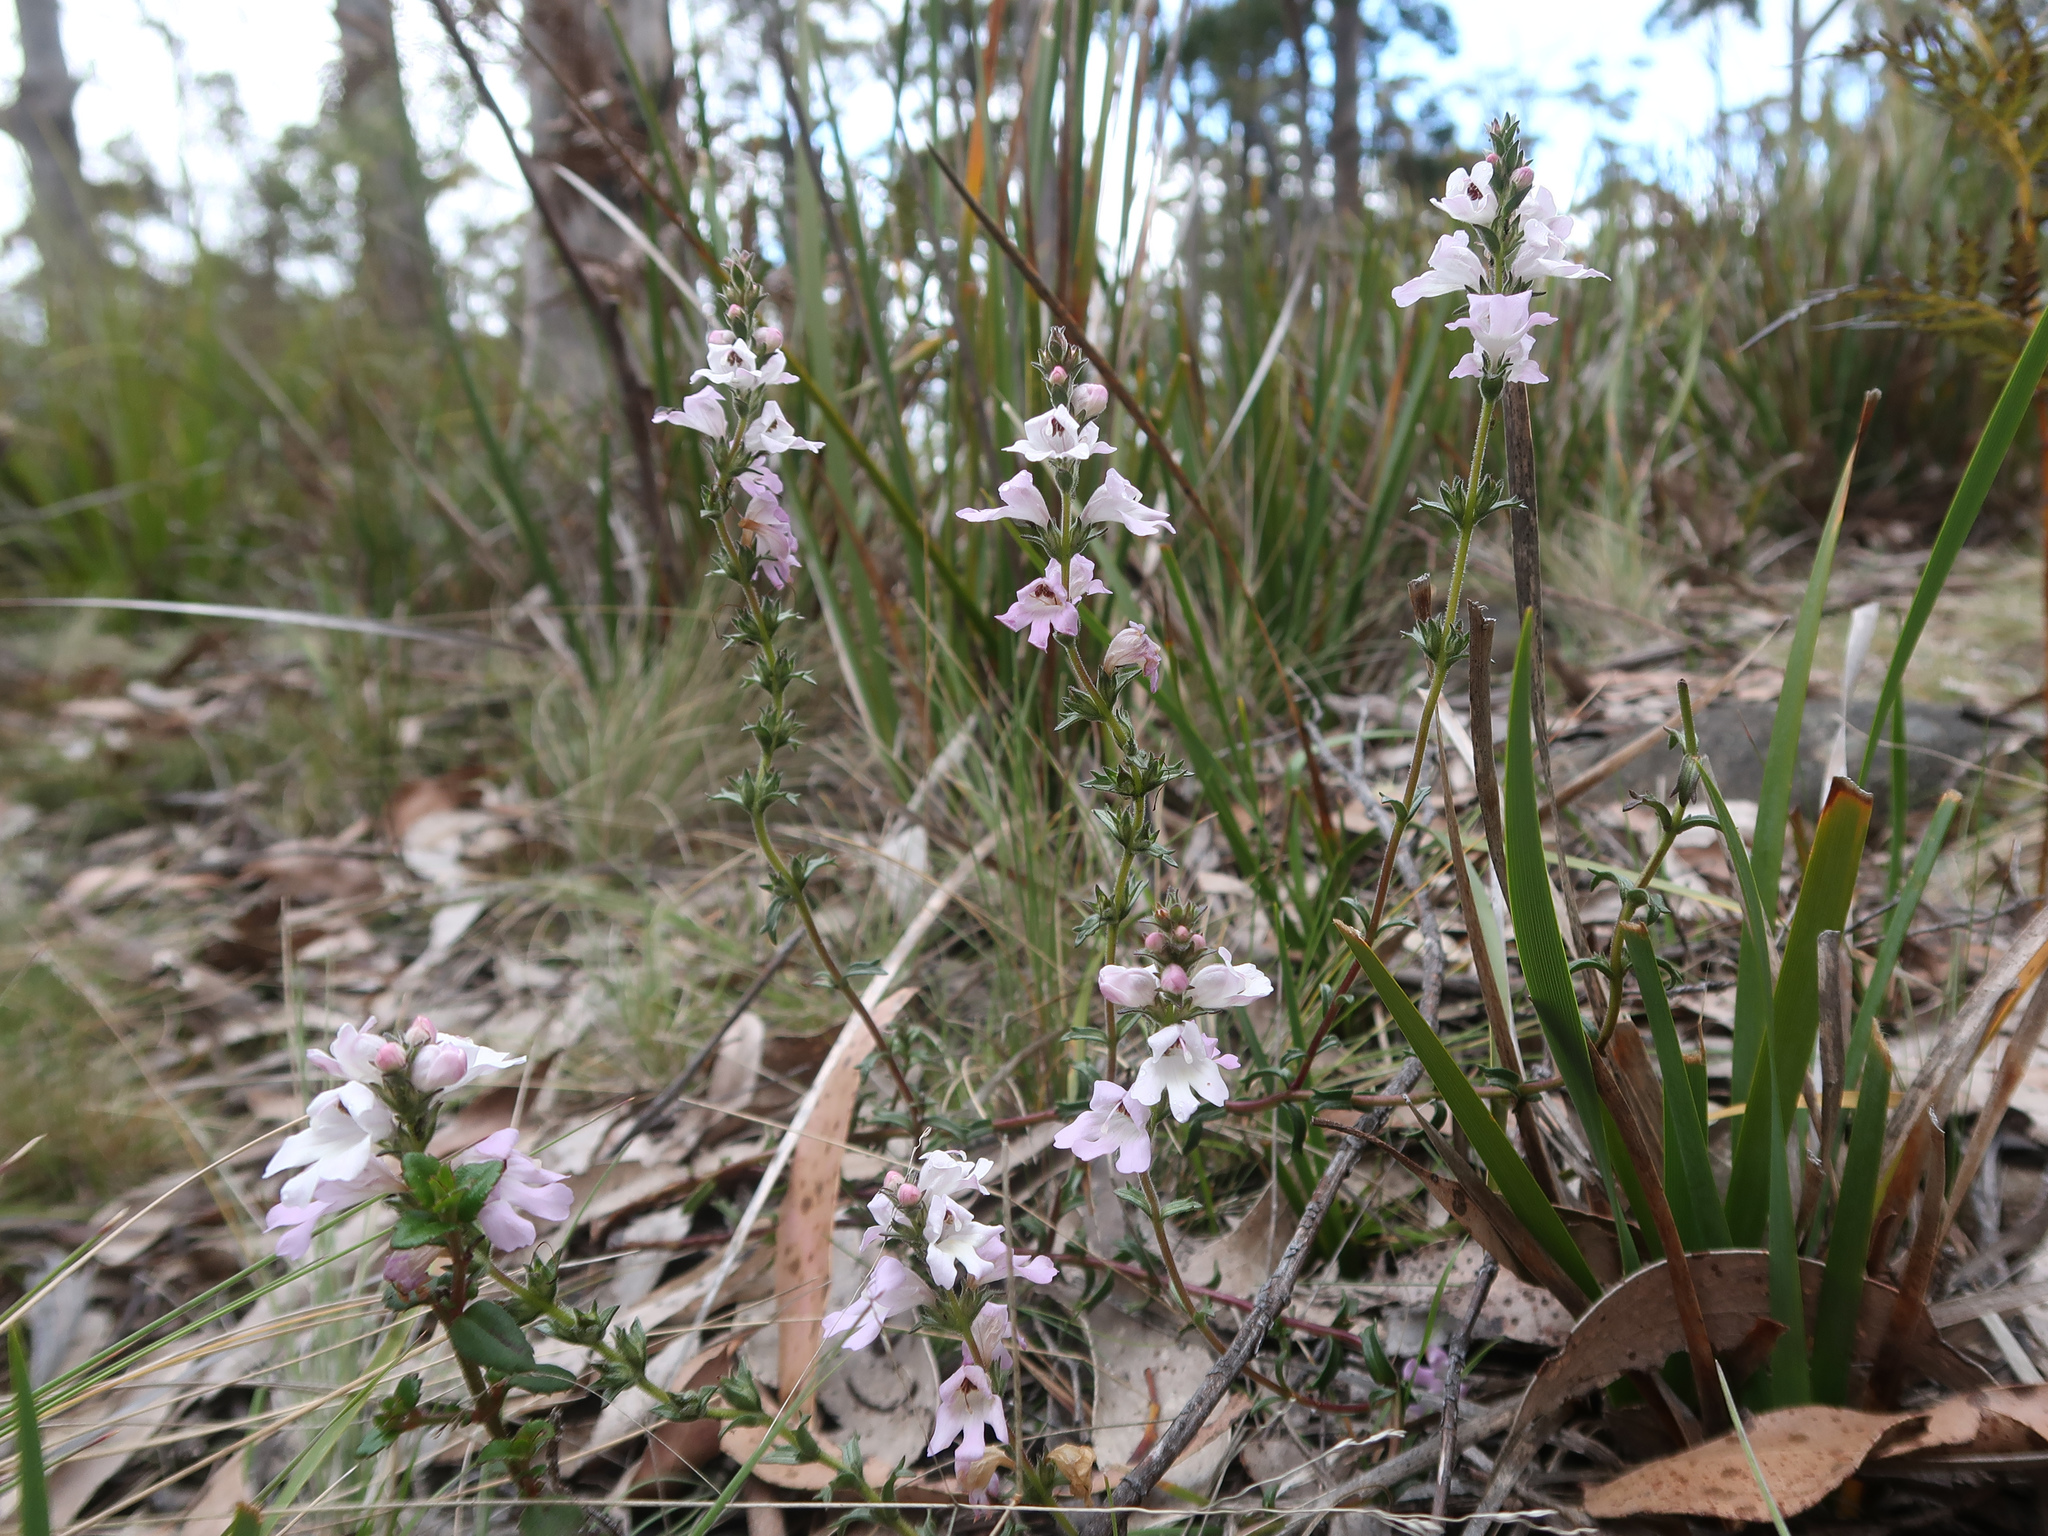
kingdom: Plantae
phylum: Tracheophyta
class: Magnoliopsida
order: Lamiales
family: Orobanchaceae
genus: Euphrasia
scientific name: Euphrasia collina
